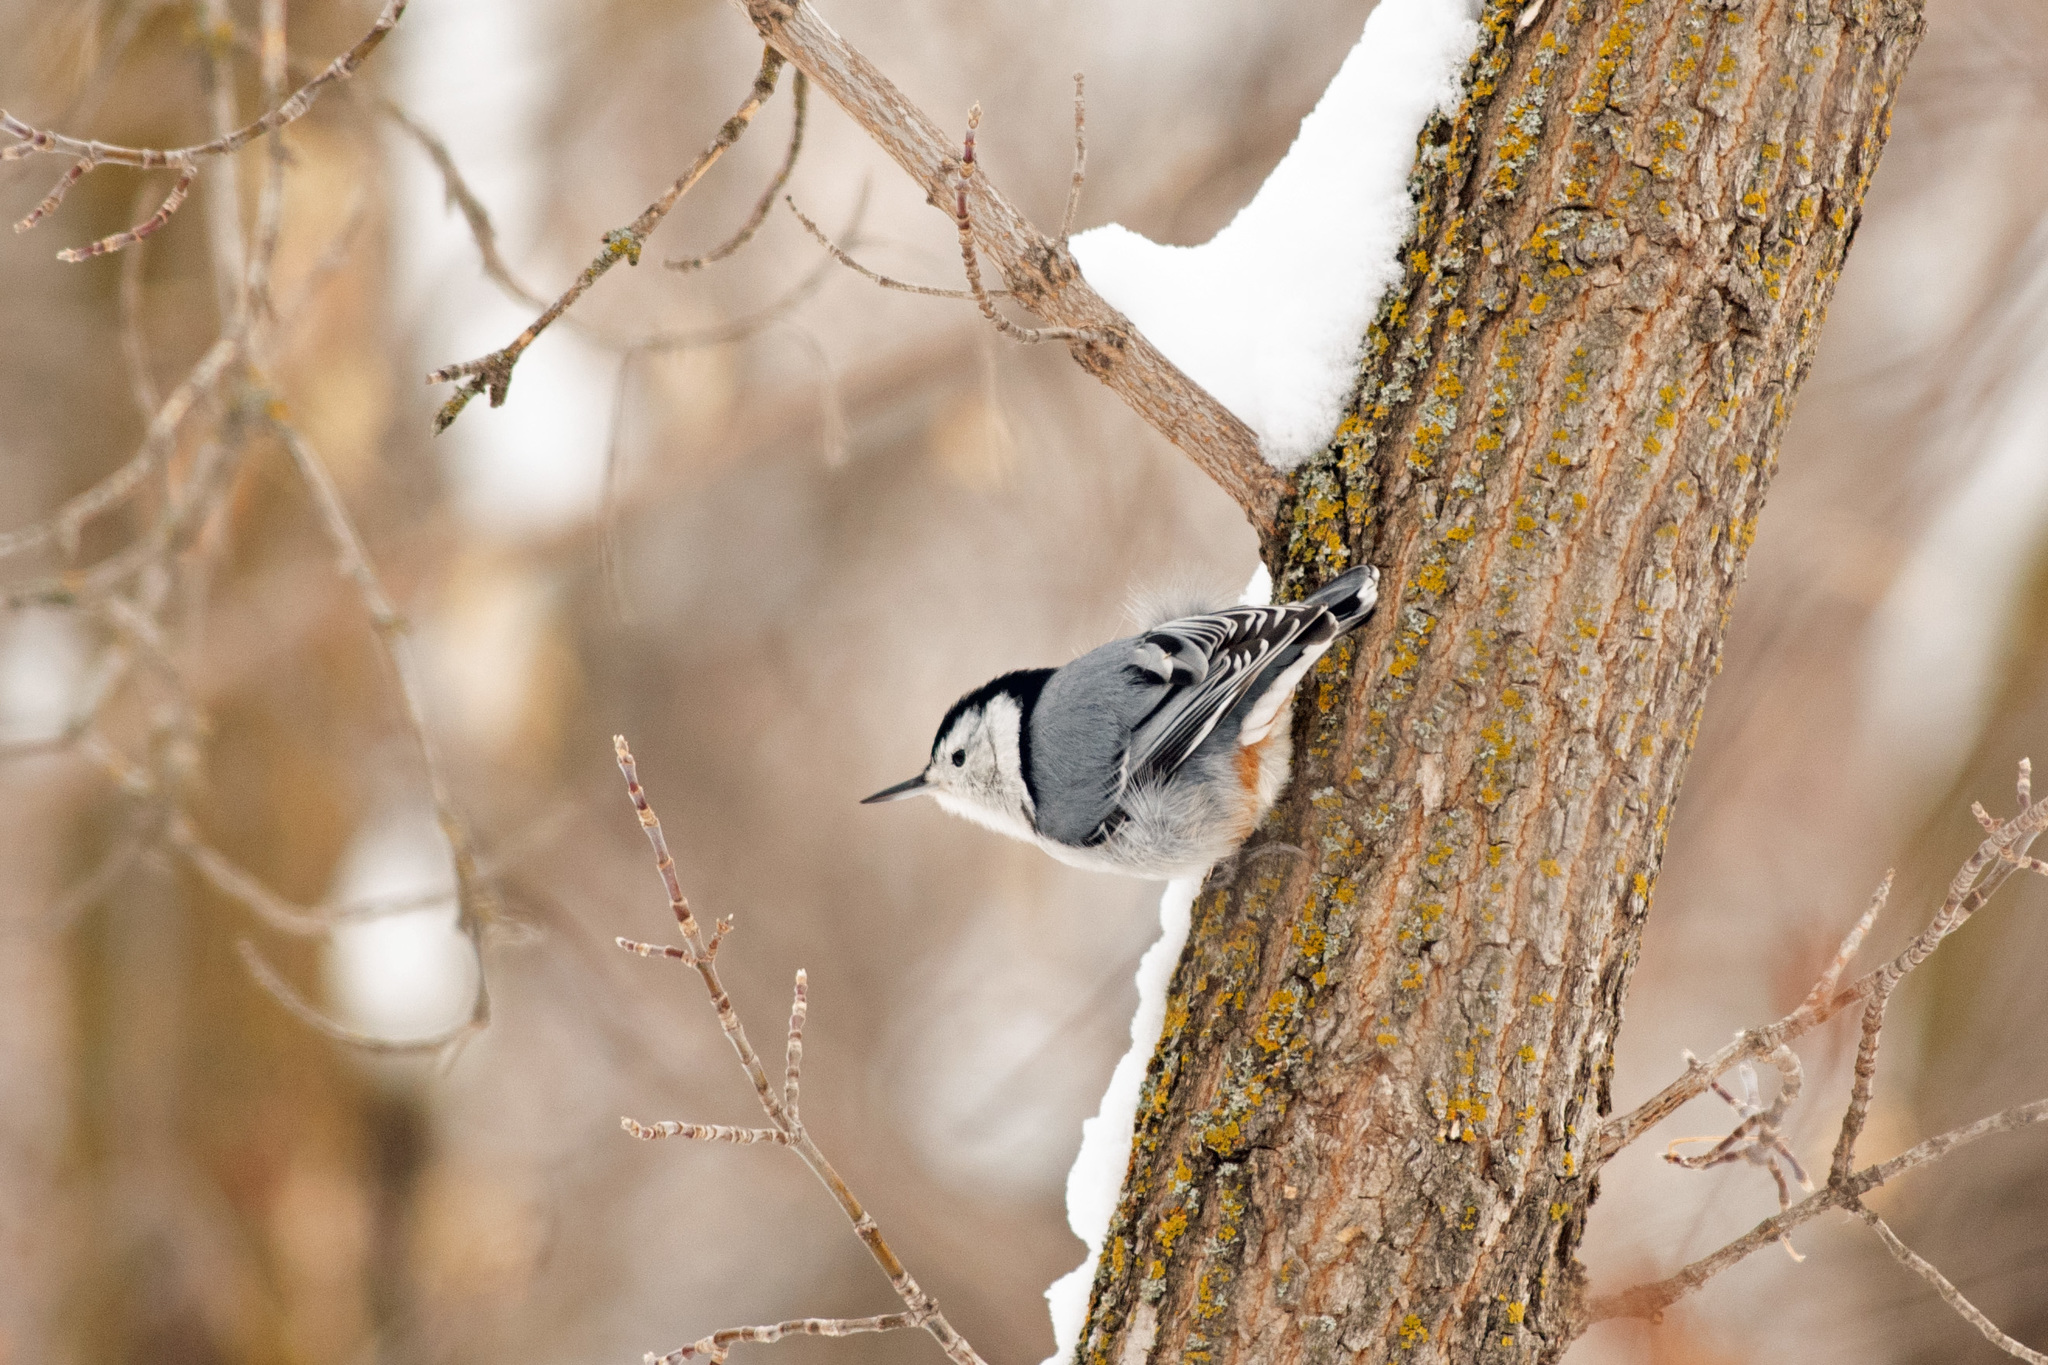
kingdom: Animalia
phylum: Chordata
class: Aves
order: Passeriformes
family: Sittidae
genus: Sitta
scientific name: Sitta carolinensis
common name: White-breasted nuthatch
